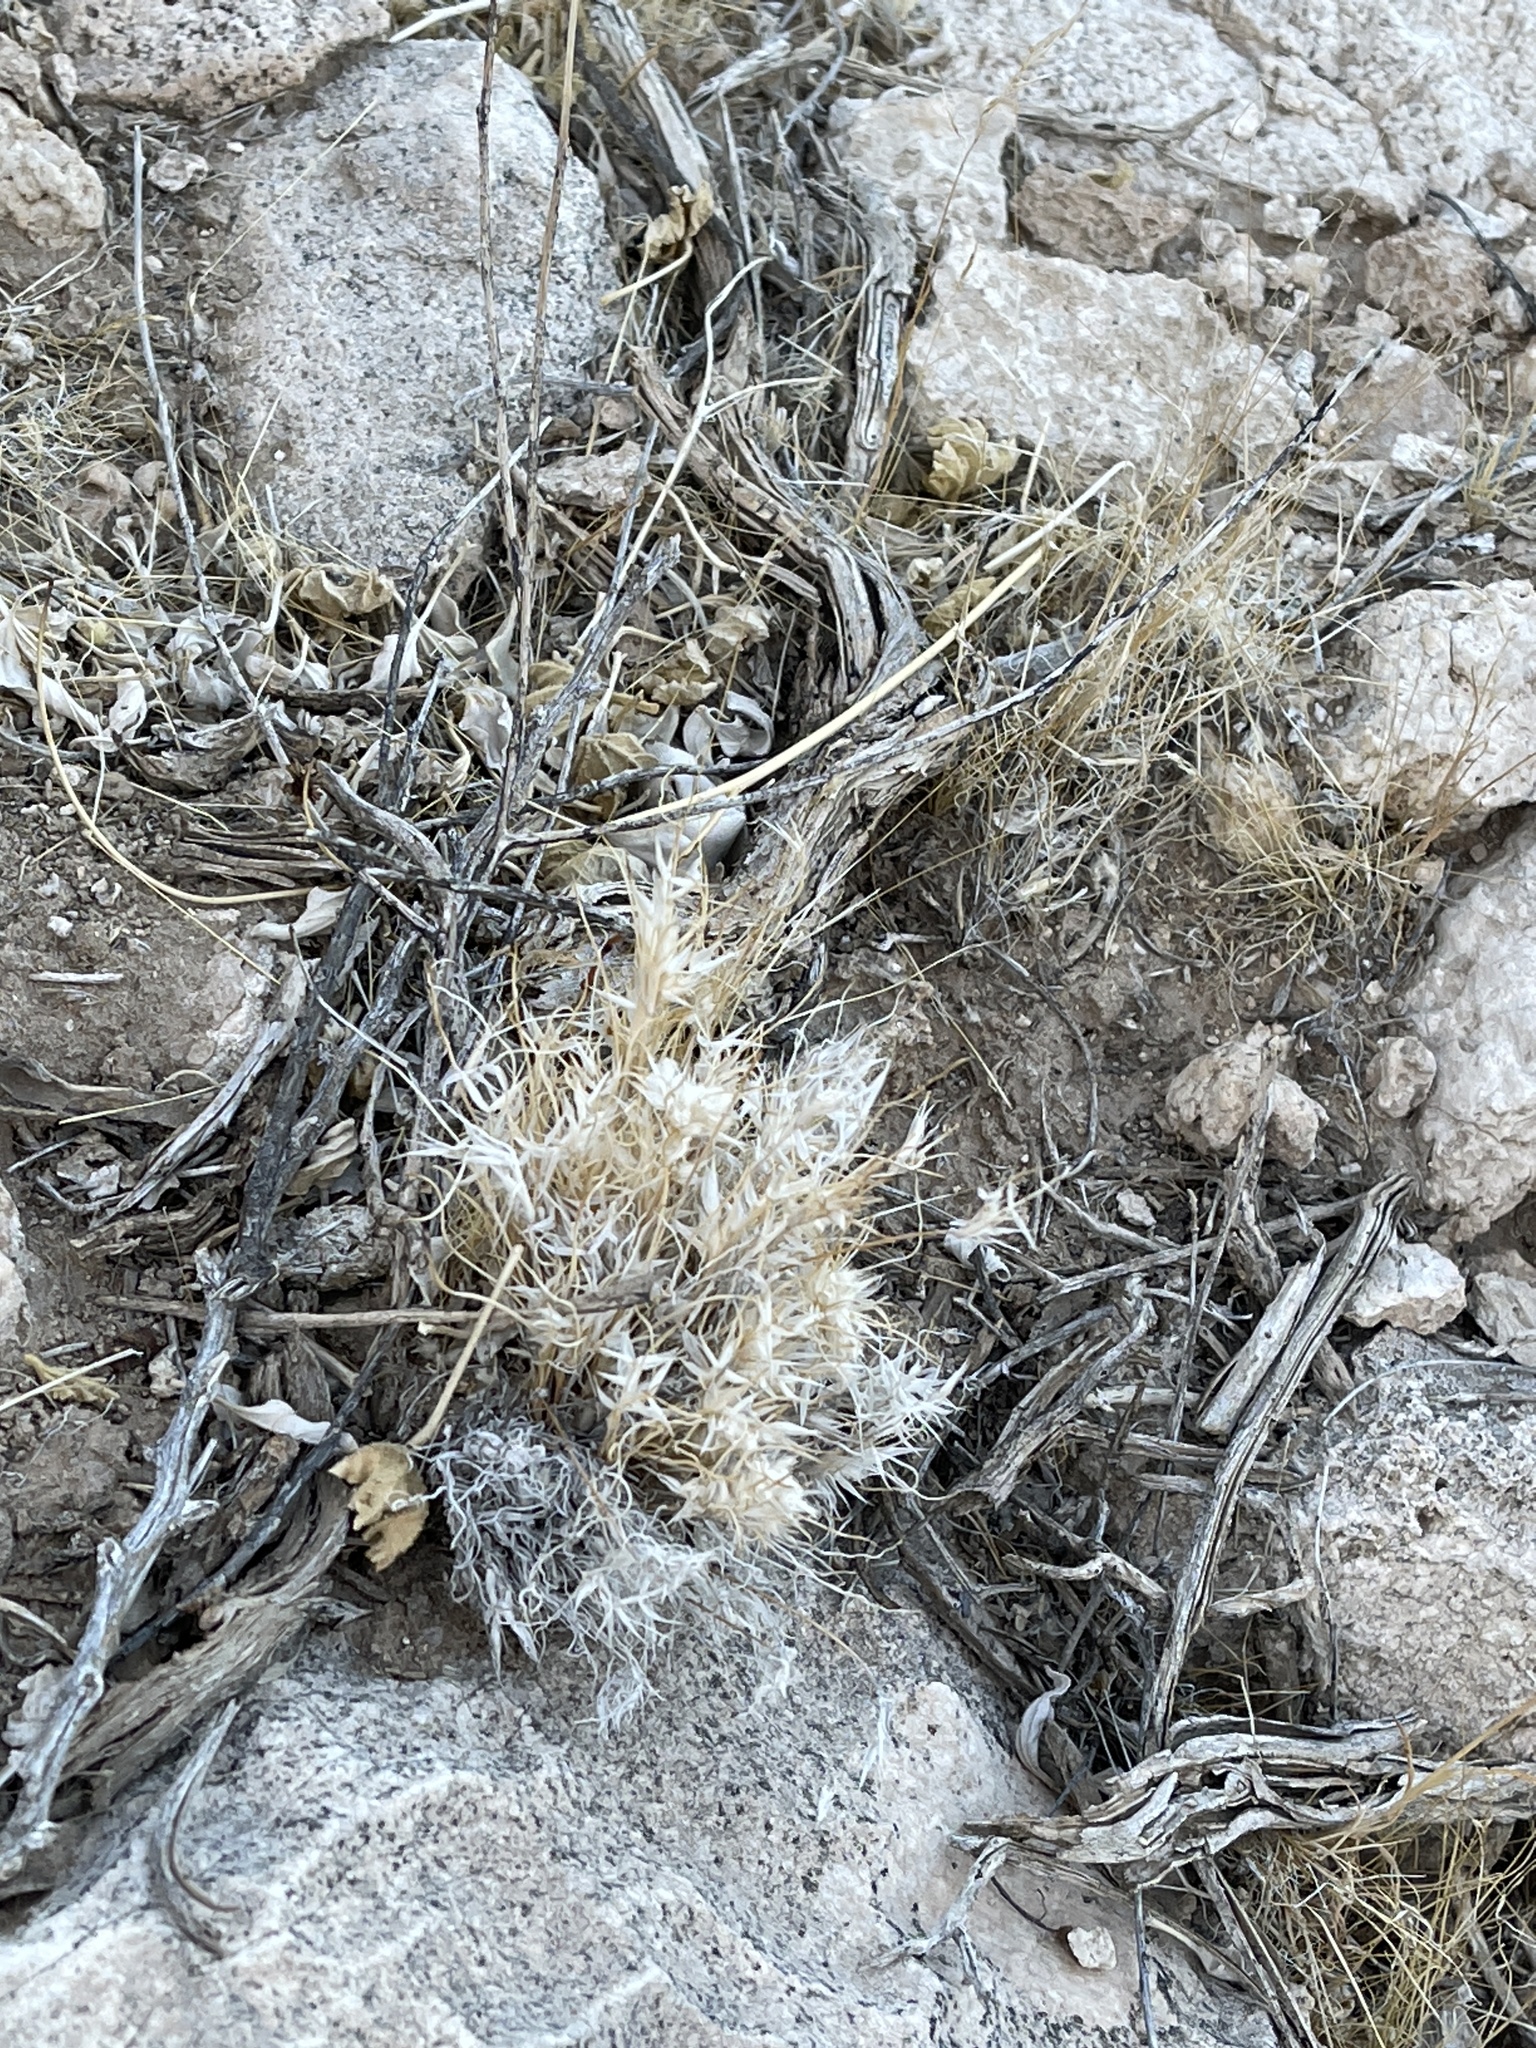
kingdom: Plantae
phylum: Tracheophyta
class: Liliopsida
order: Poales
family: Poaceae
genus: Dasyochloa
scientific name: Dasyochloa pulchella
